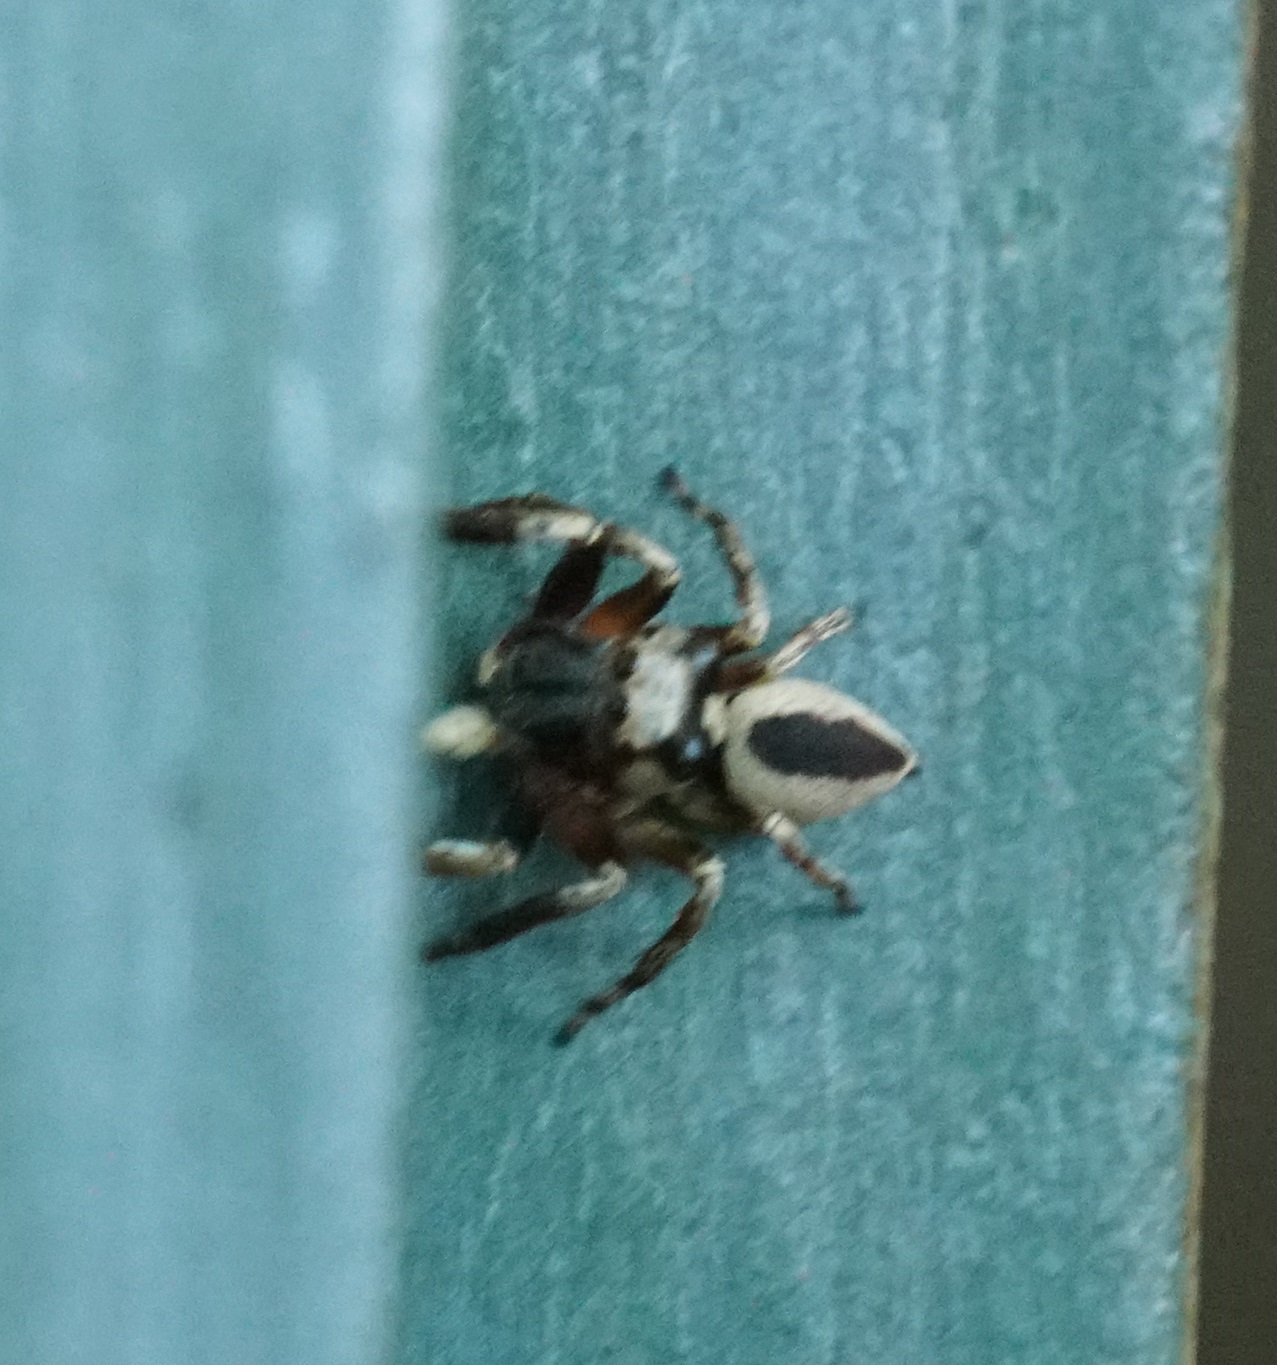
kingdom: Animalia
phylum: Arthropoda
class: Arachnida
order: Araneae
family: Salticidae
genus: Euryattus
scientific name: Euryattus wallacei
